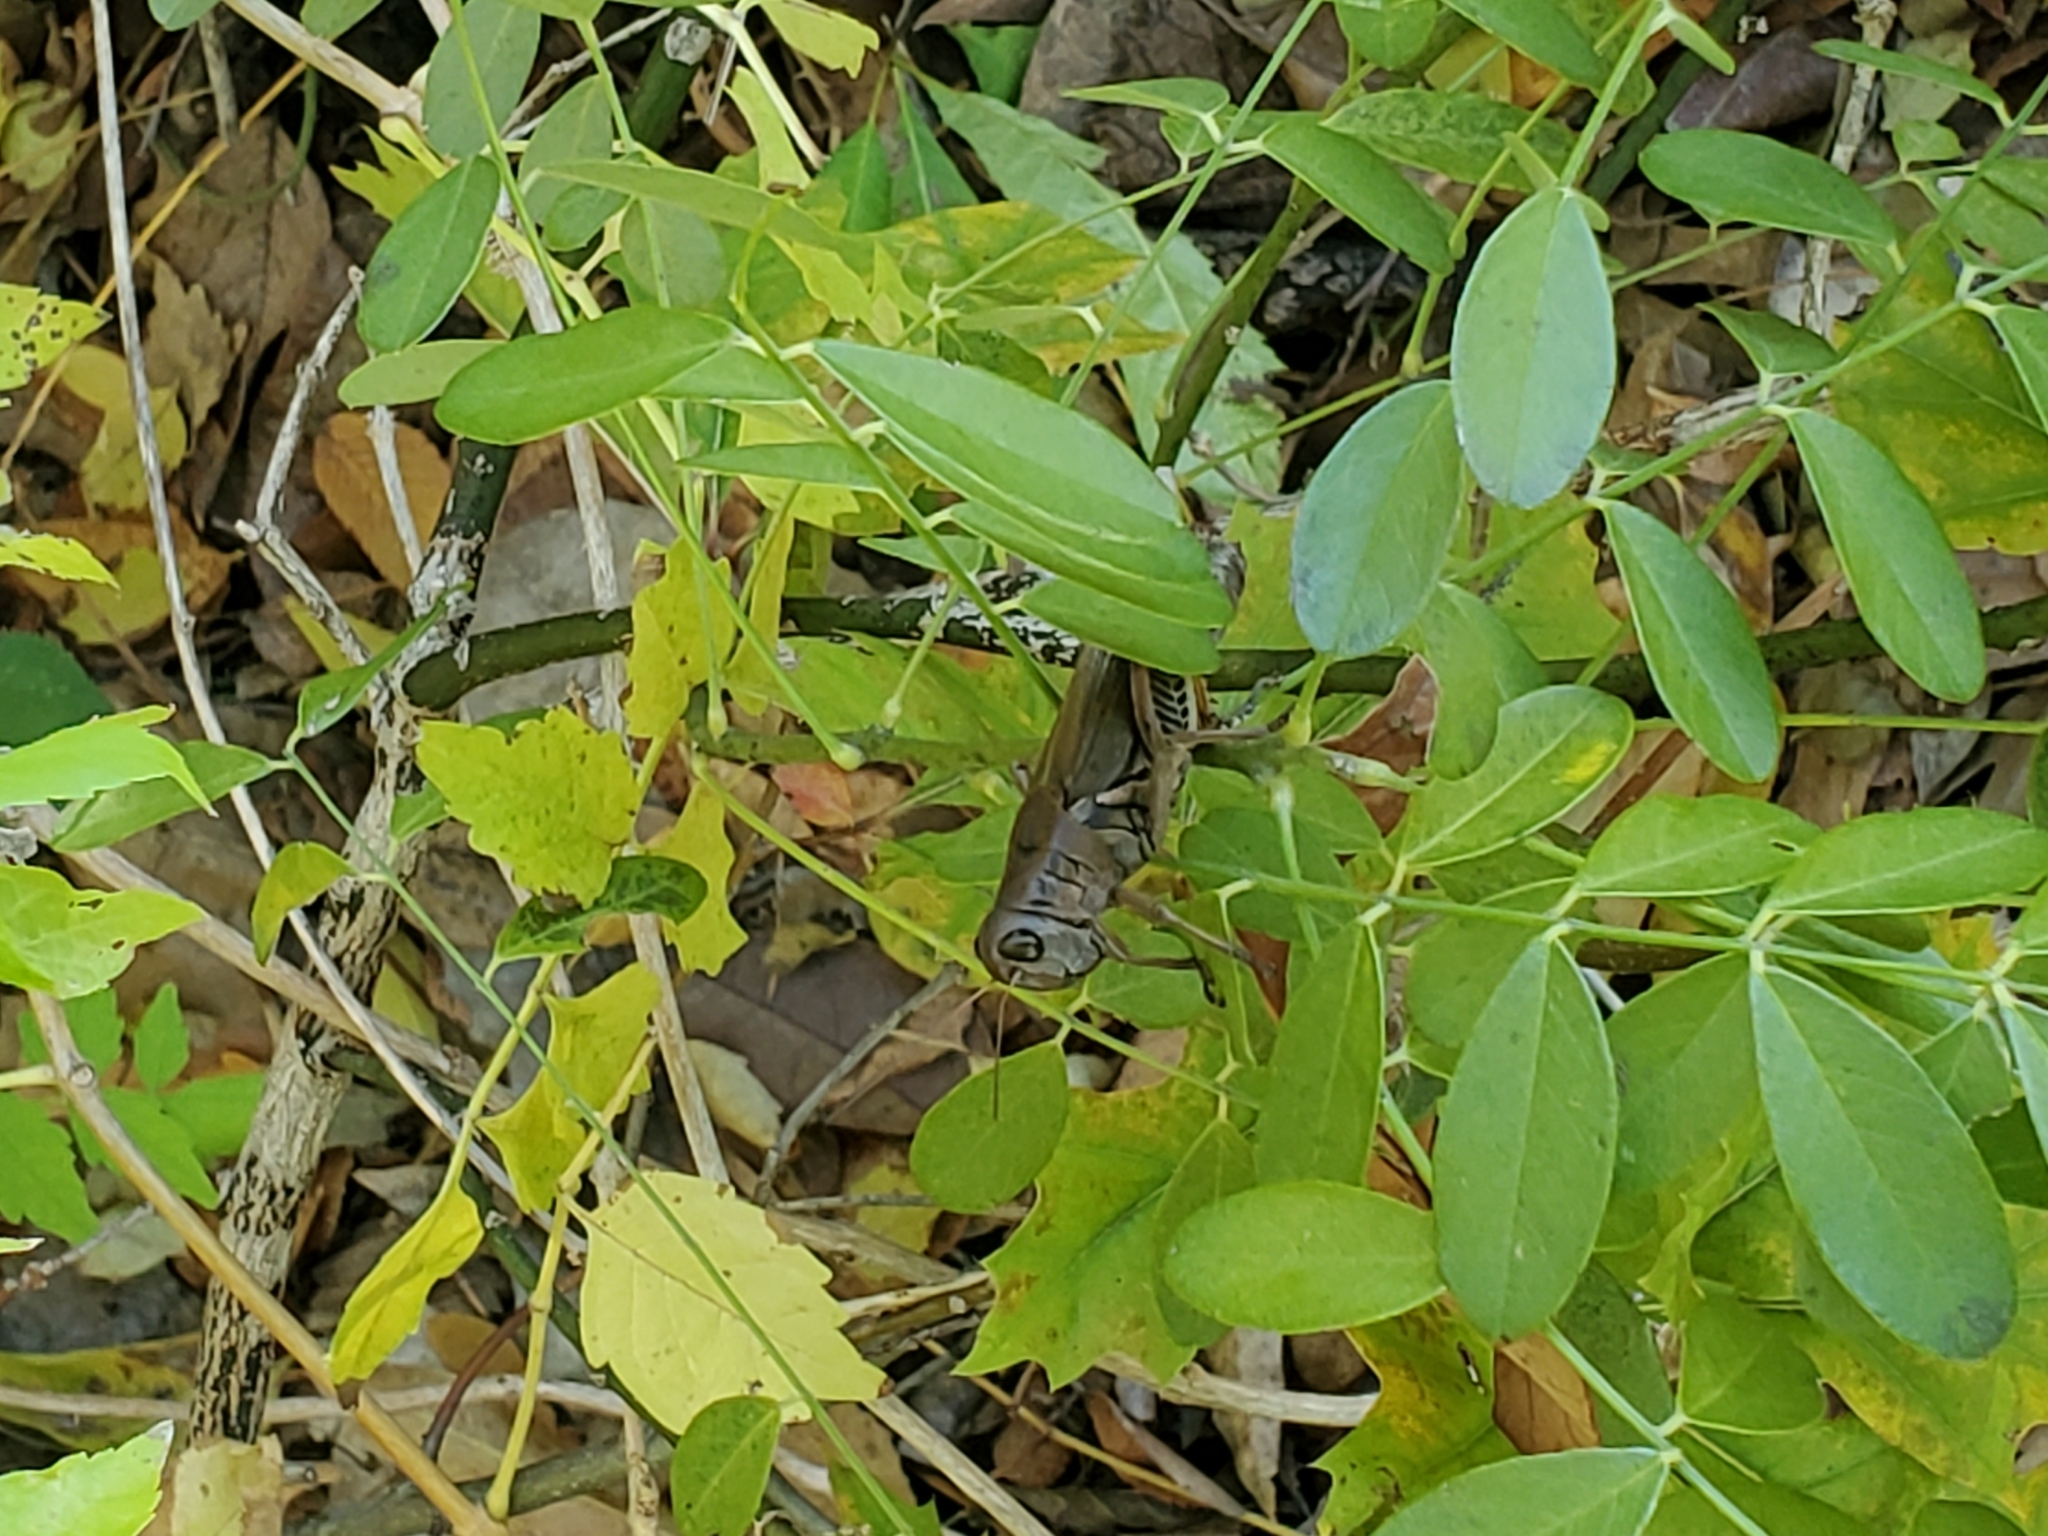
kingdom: Animalia
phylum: Arthropoda
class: Insecta
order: Orthoptera
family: Acrididae
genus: Melanoplus
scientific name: Melanoplus differentialis
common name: Differential grasshopper
